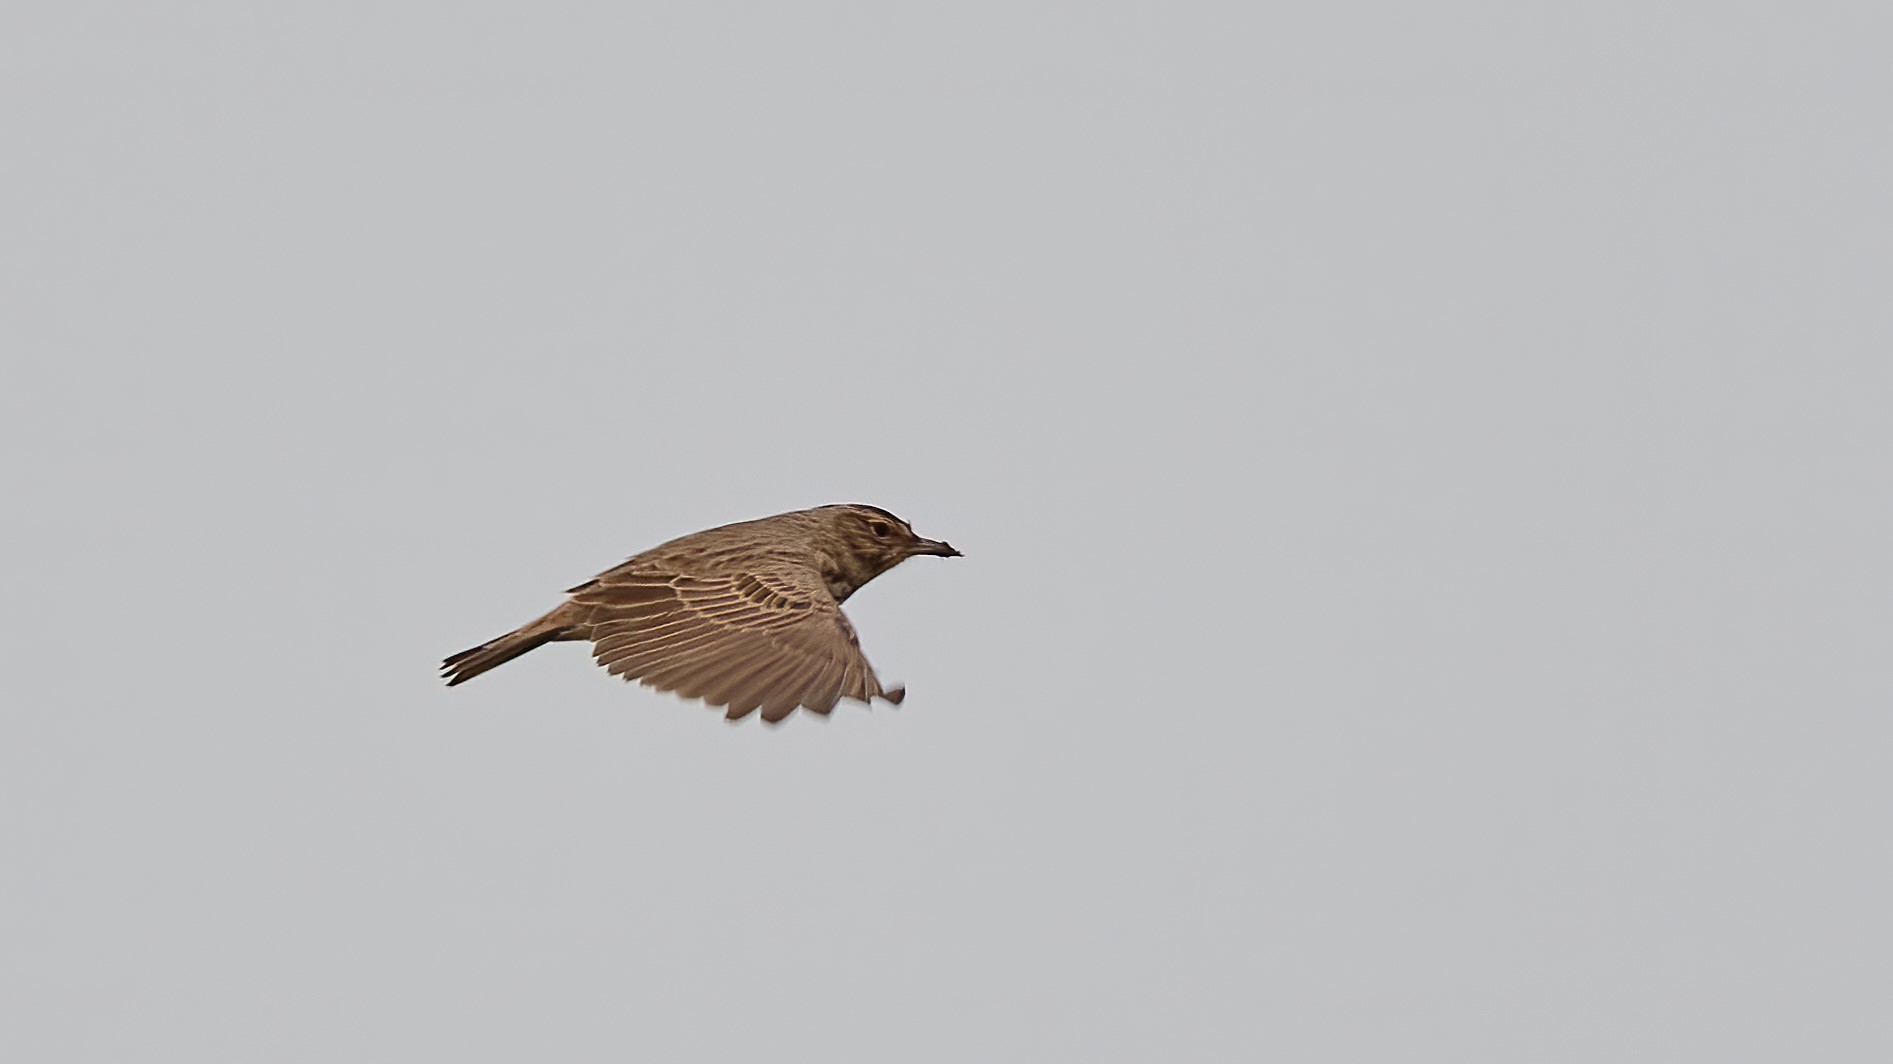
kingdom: Animalia
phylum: Chordata
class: Aves
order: Passeriformes
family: Alaudidae
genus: Galerida
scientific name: Galerida cristata
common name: Crested lark
